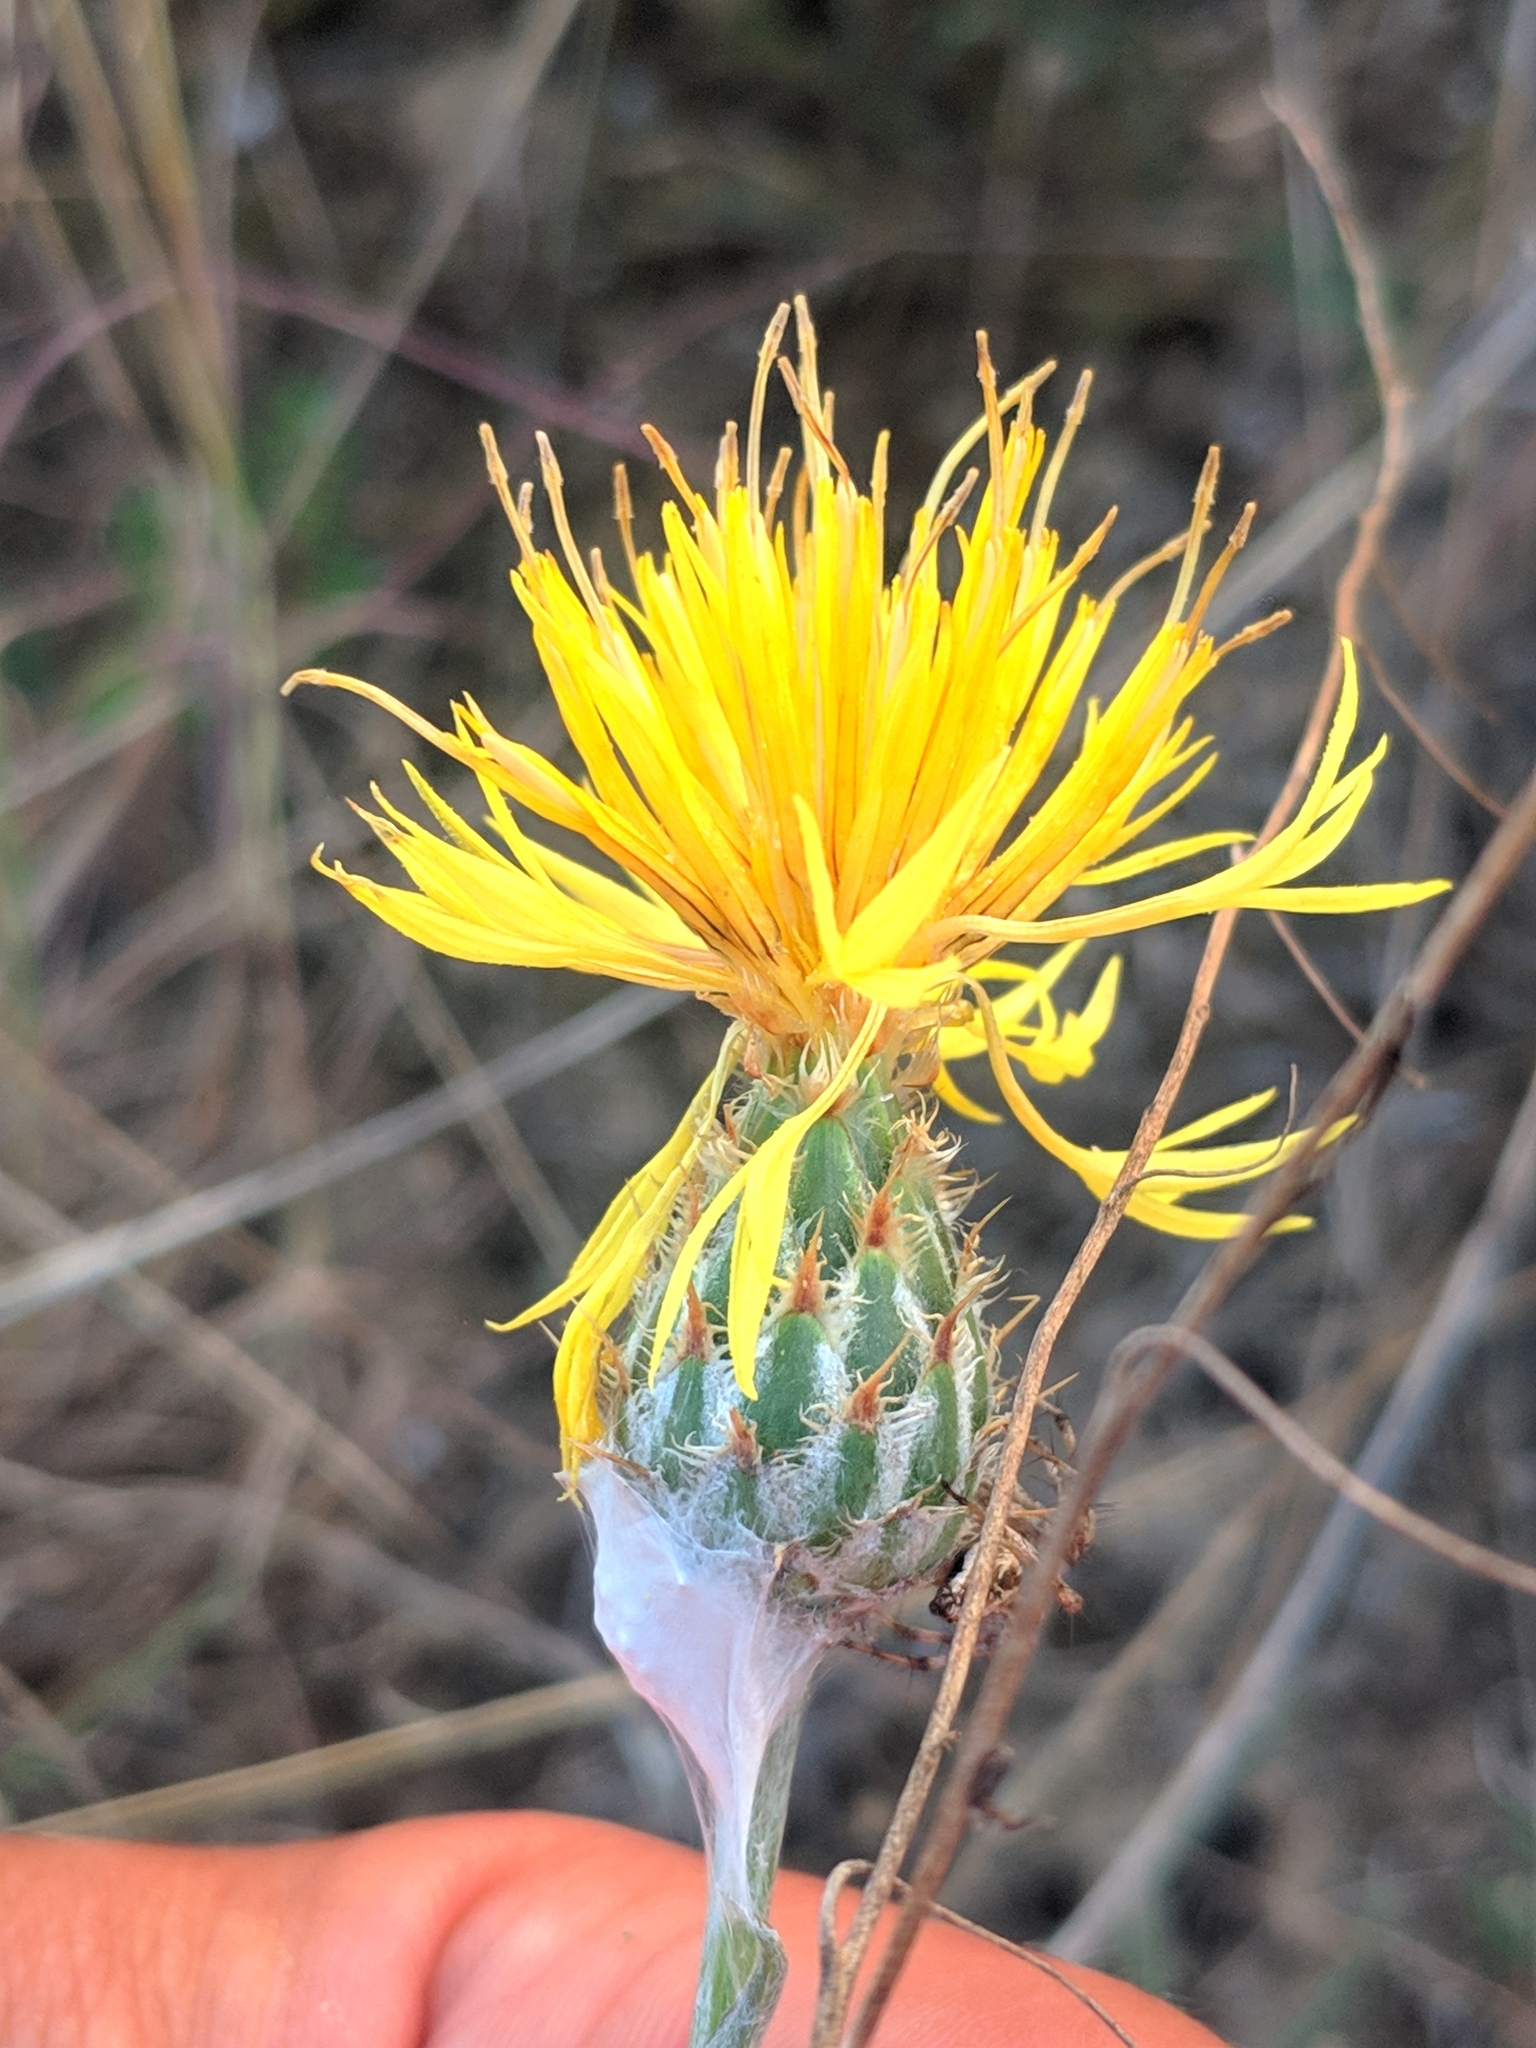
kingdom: Plantae
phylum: Tracheophyta
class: Magnoliopsida
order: Asterales
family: Asteraceae
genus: Centaurea
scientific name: Centaurea salonitana
